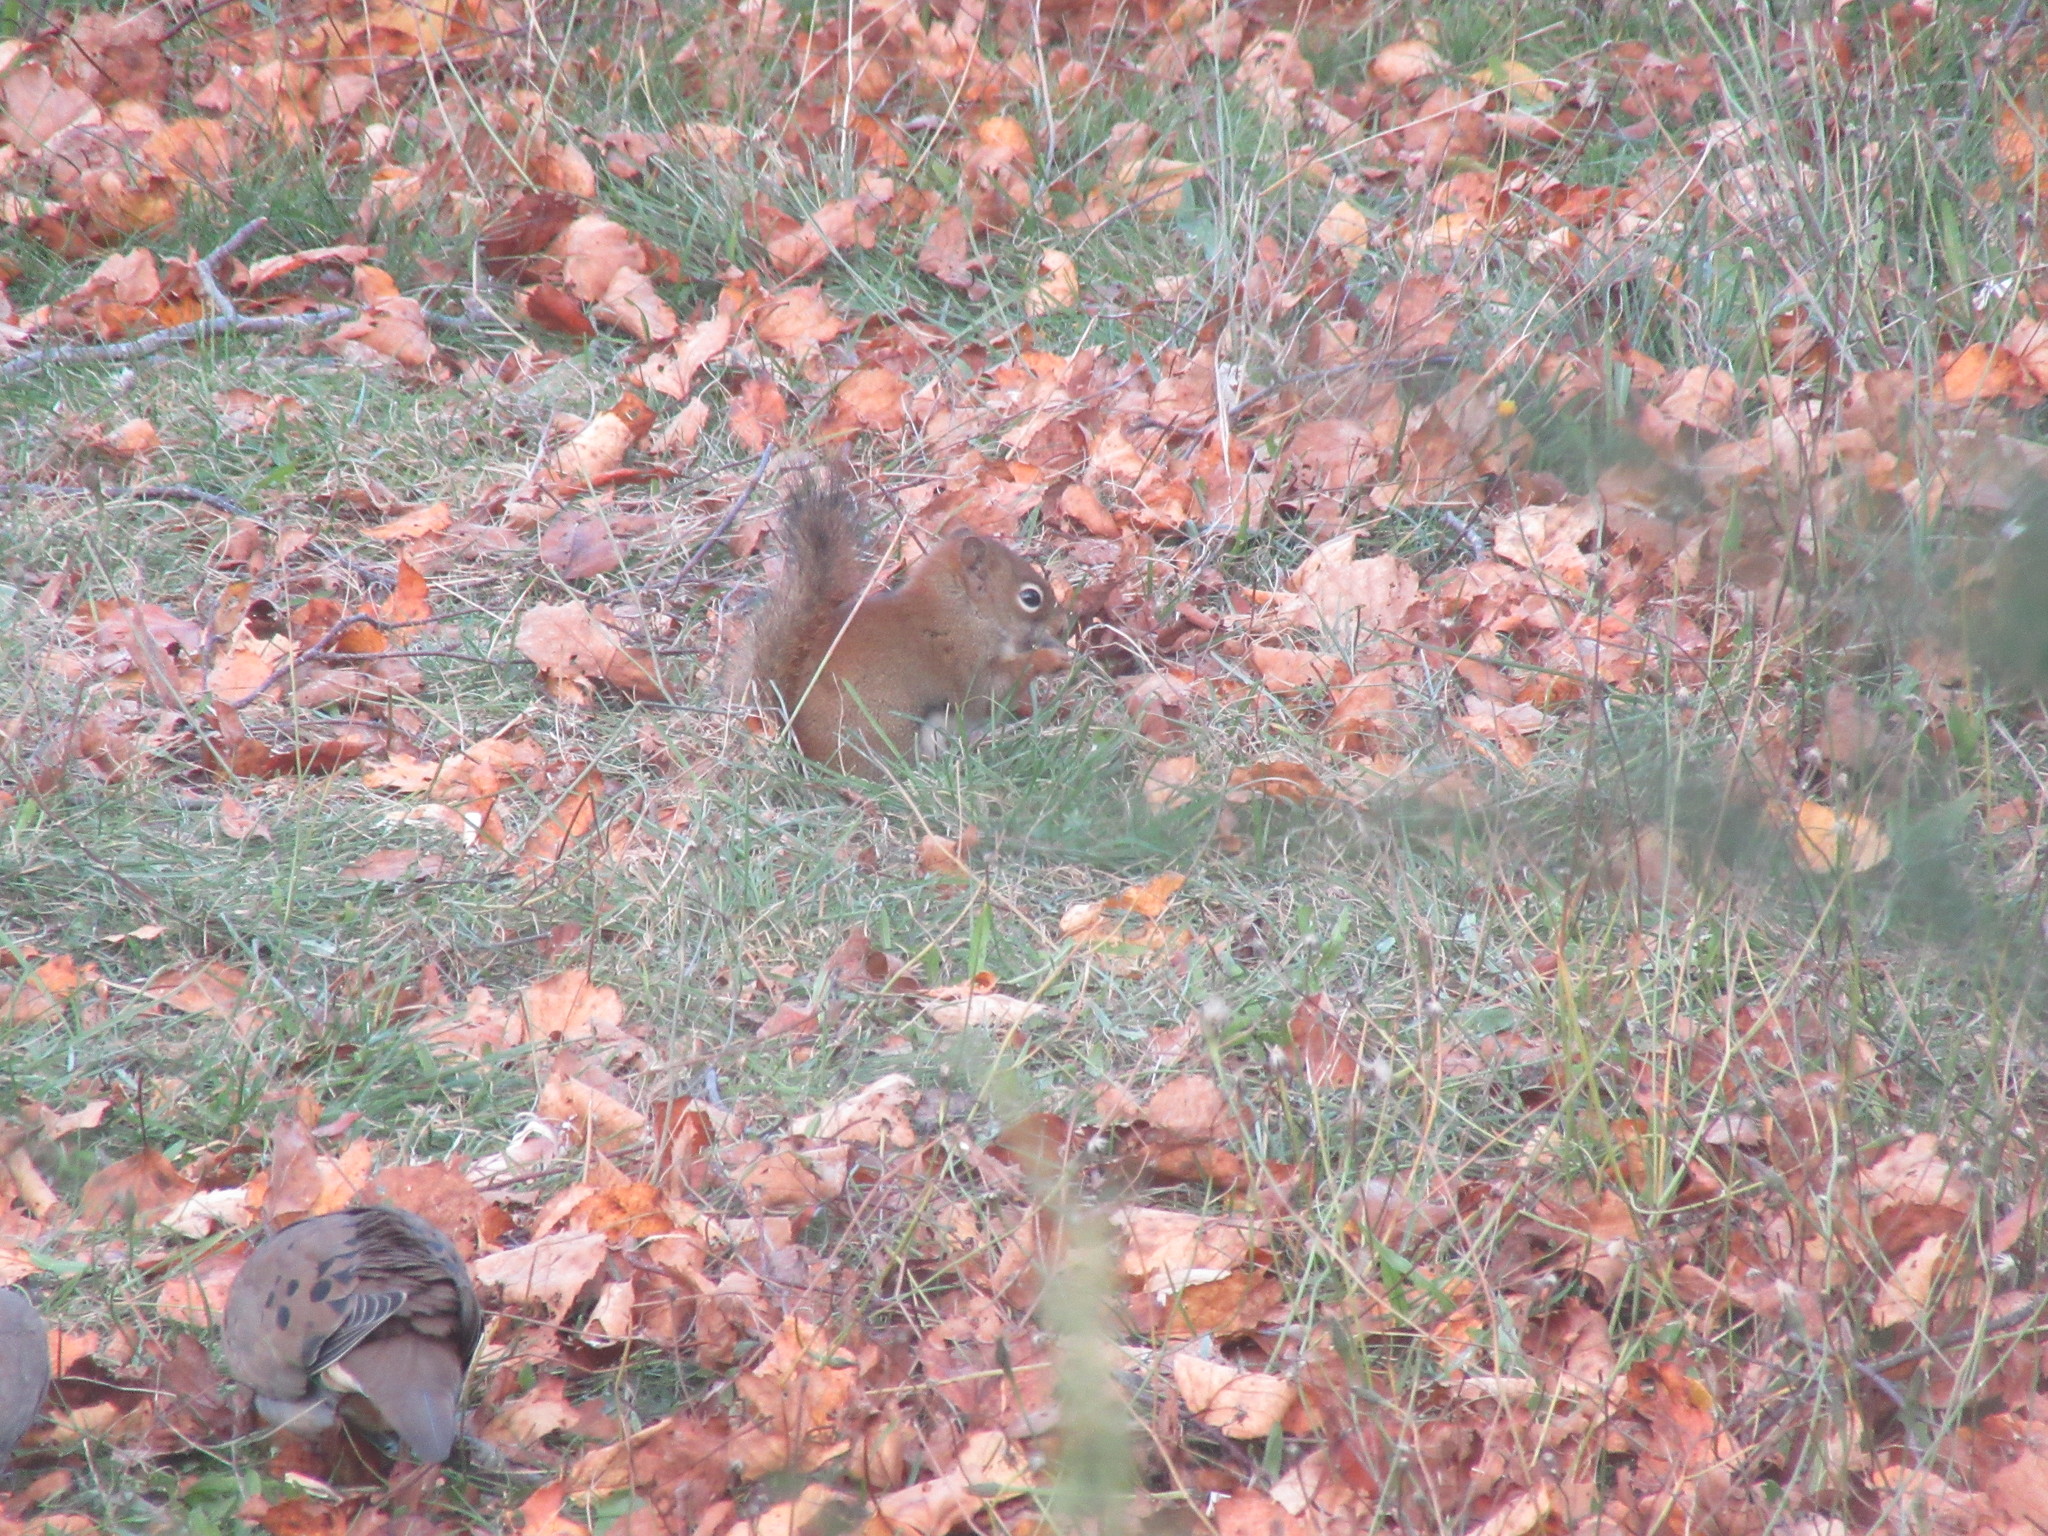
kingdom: Animalia
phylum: Chordata
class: Mammalia
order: Rodentia
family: Sciuridae
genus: Tamiasciurus
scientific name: Tamiasciurus hudsonicus
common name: Red squirrel
